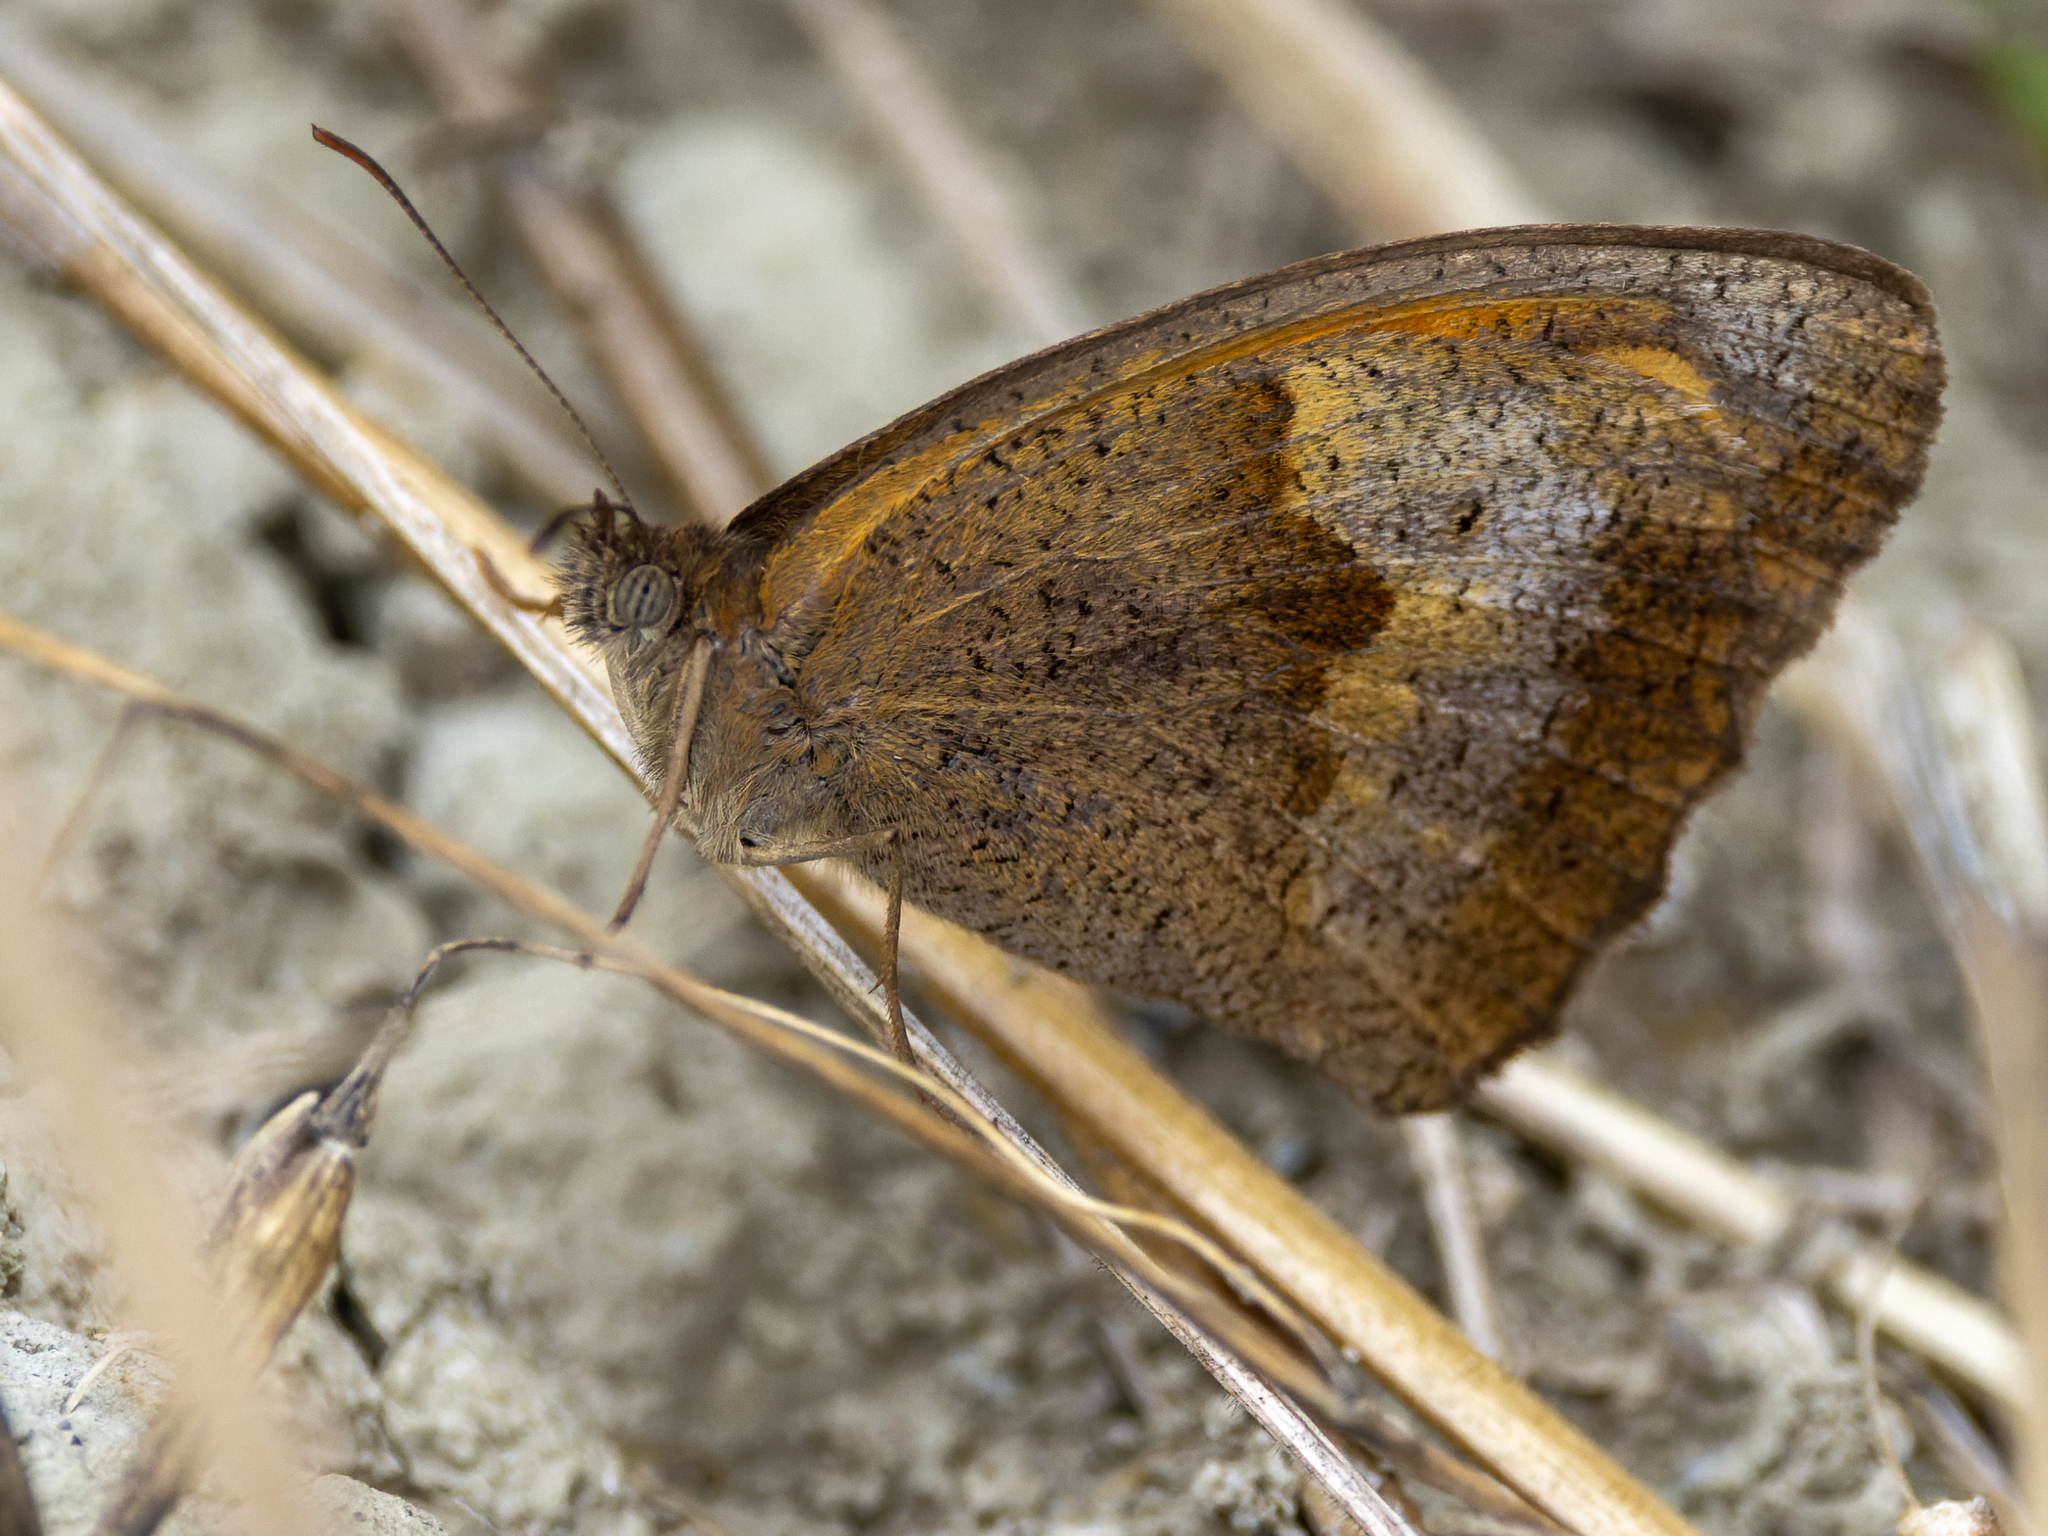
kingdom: Animalia
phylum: Arthropoda
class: Insecta
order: Lepidoptera
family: Nymphalidae
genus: Maniola
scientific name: Maniola jurtina
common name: Meadow brown
